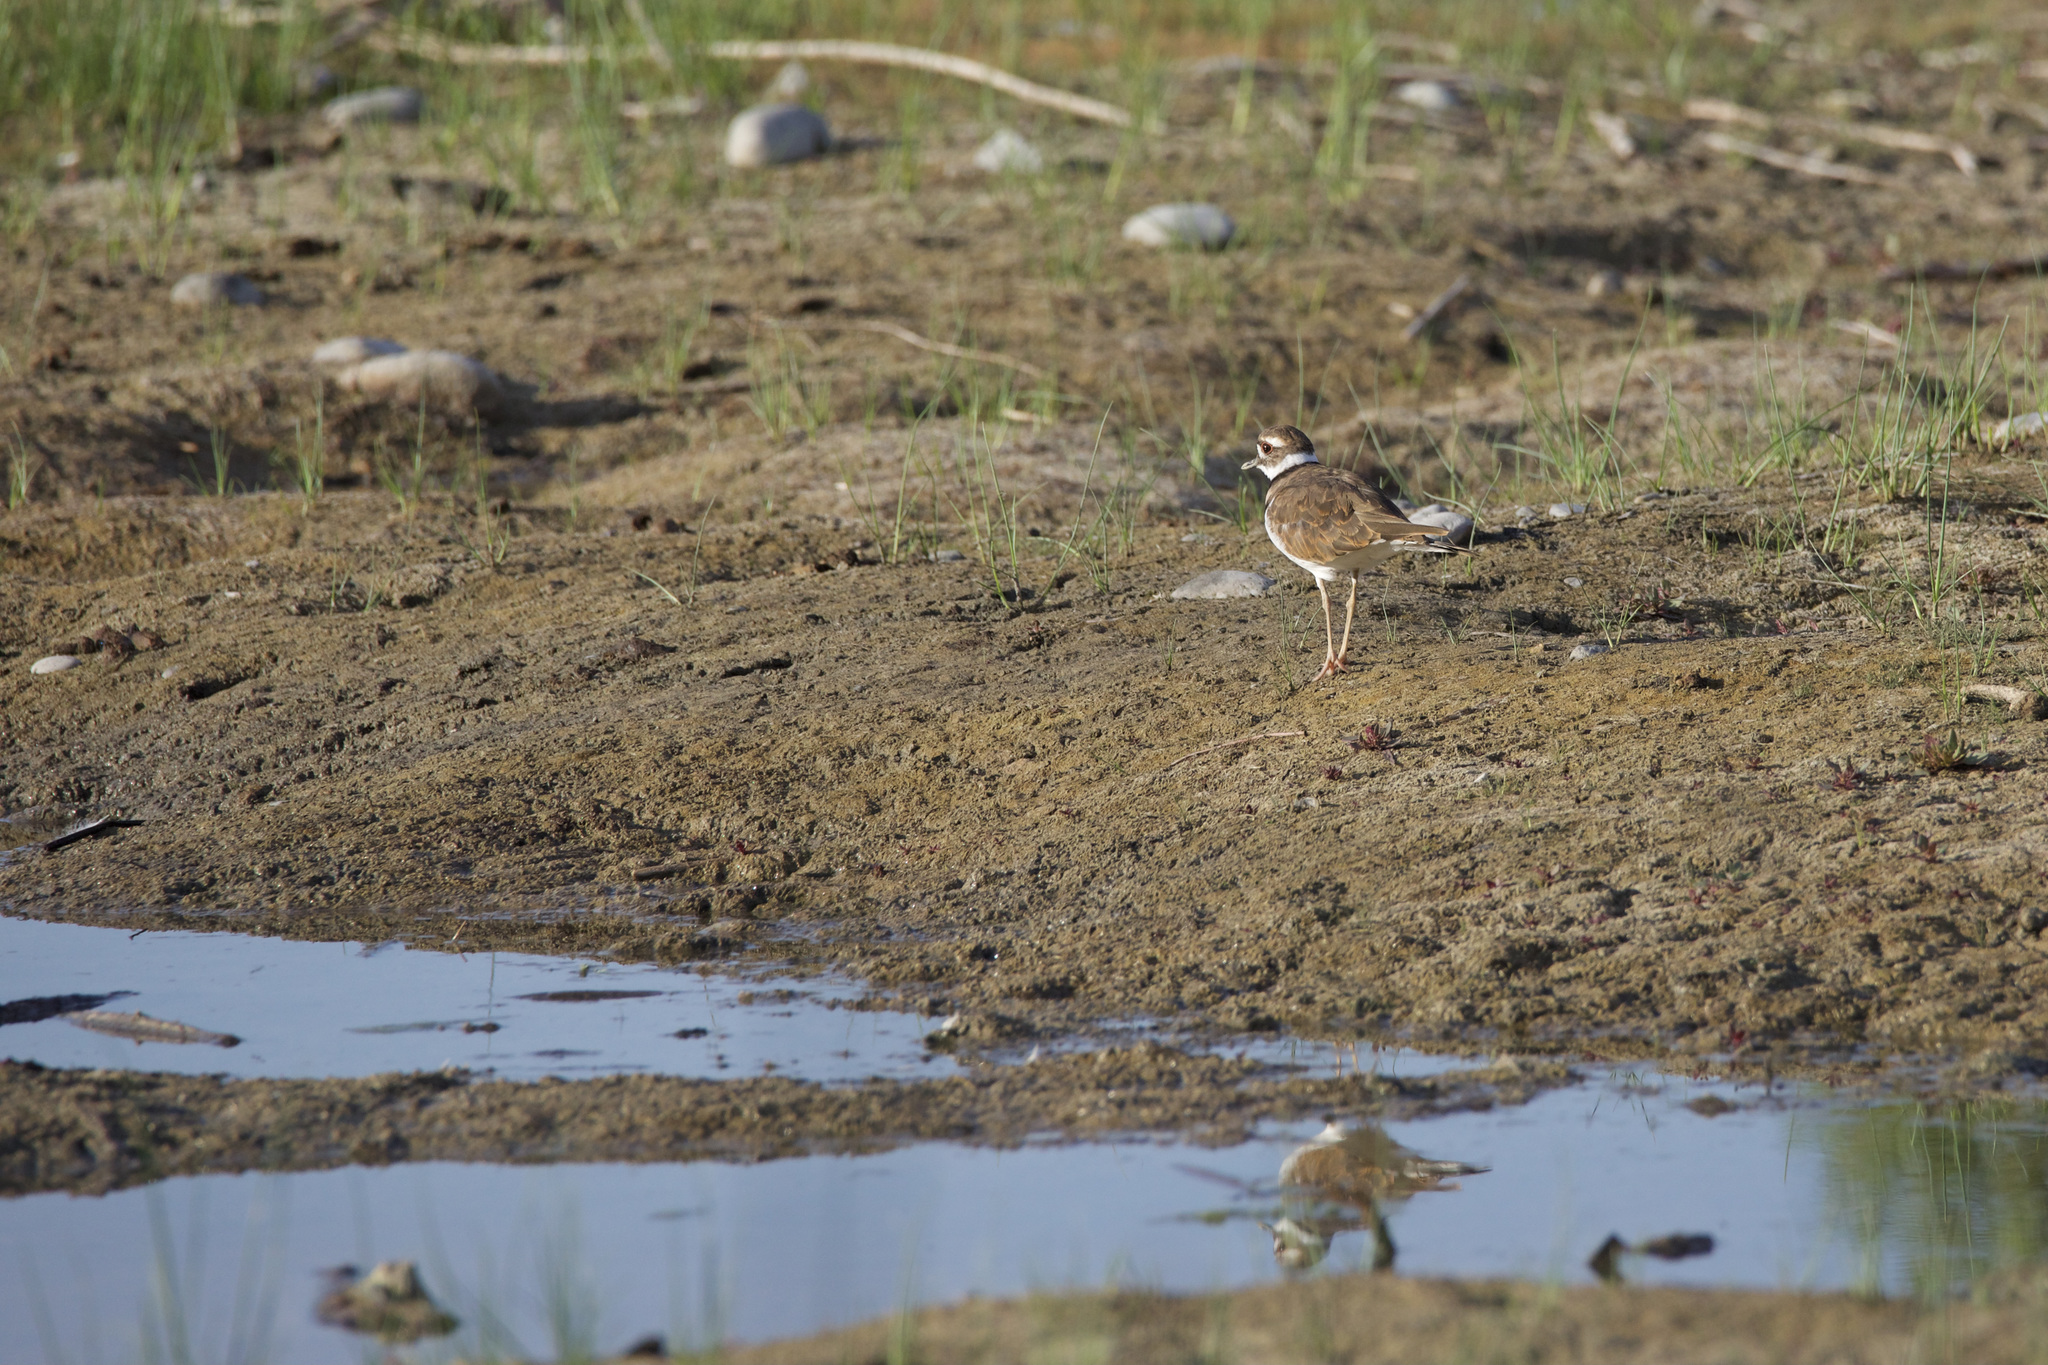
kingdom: Animalia
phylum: Chordata
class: Aves
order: Charadriiformes
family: Charadriidae
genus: Charadrius
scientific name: Charadrius vociferus
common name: Killdeer
